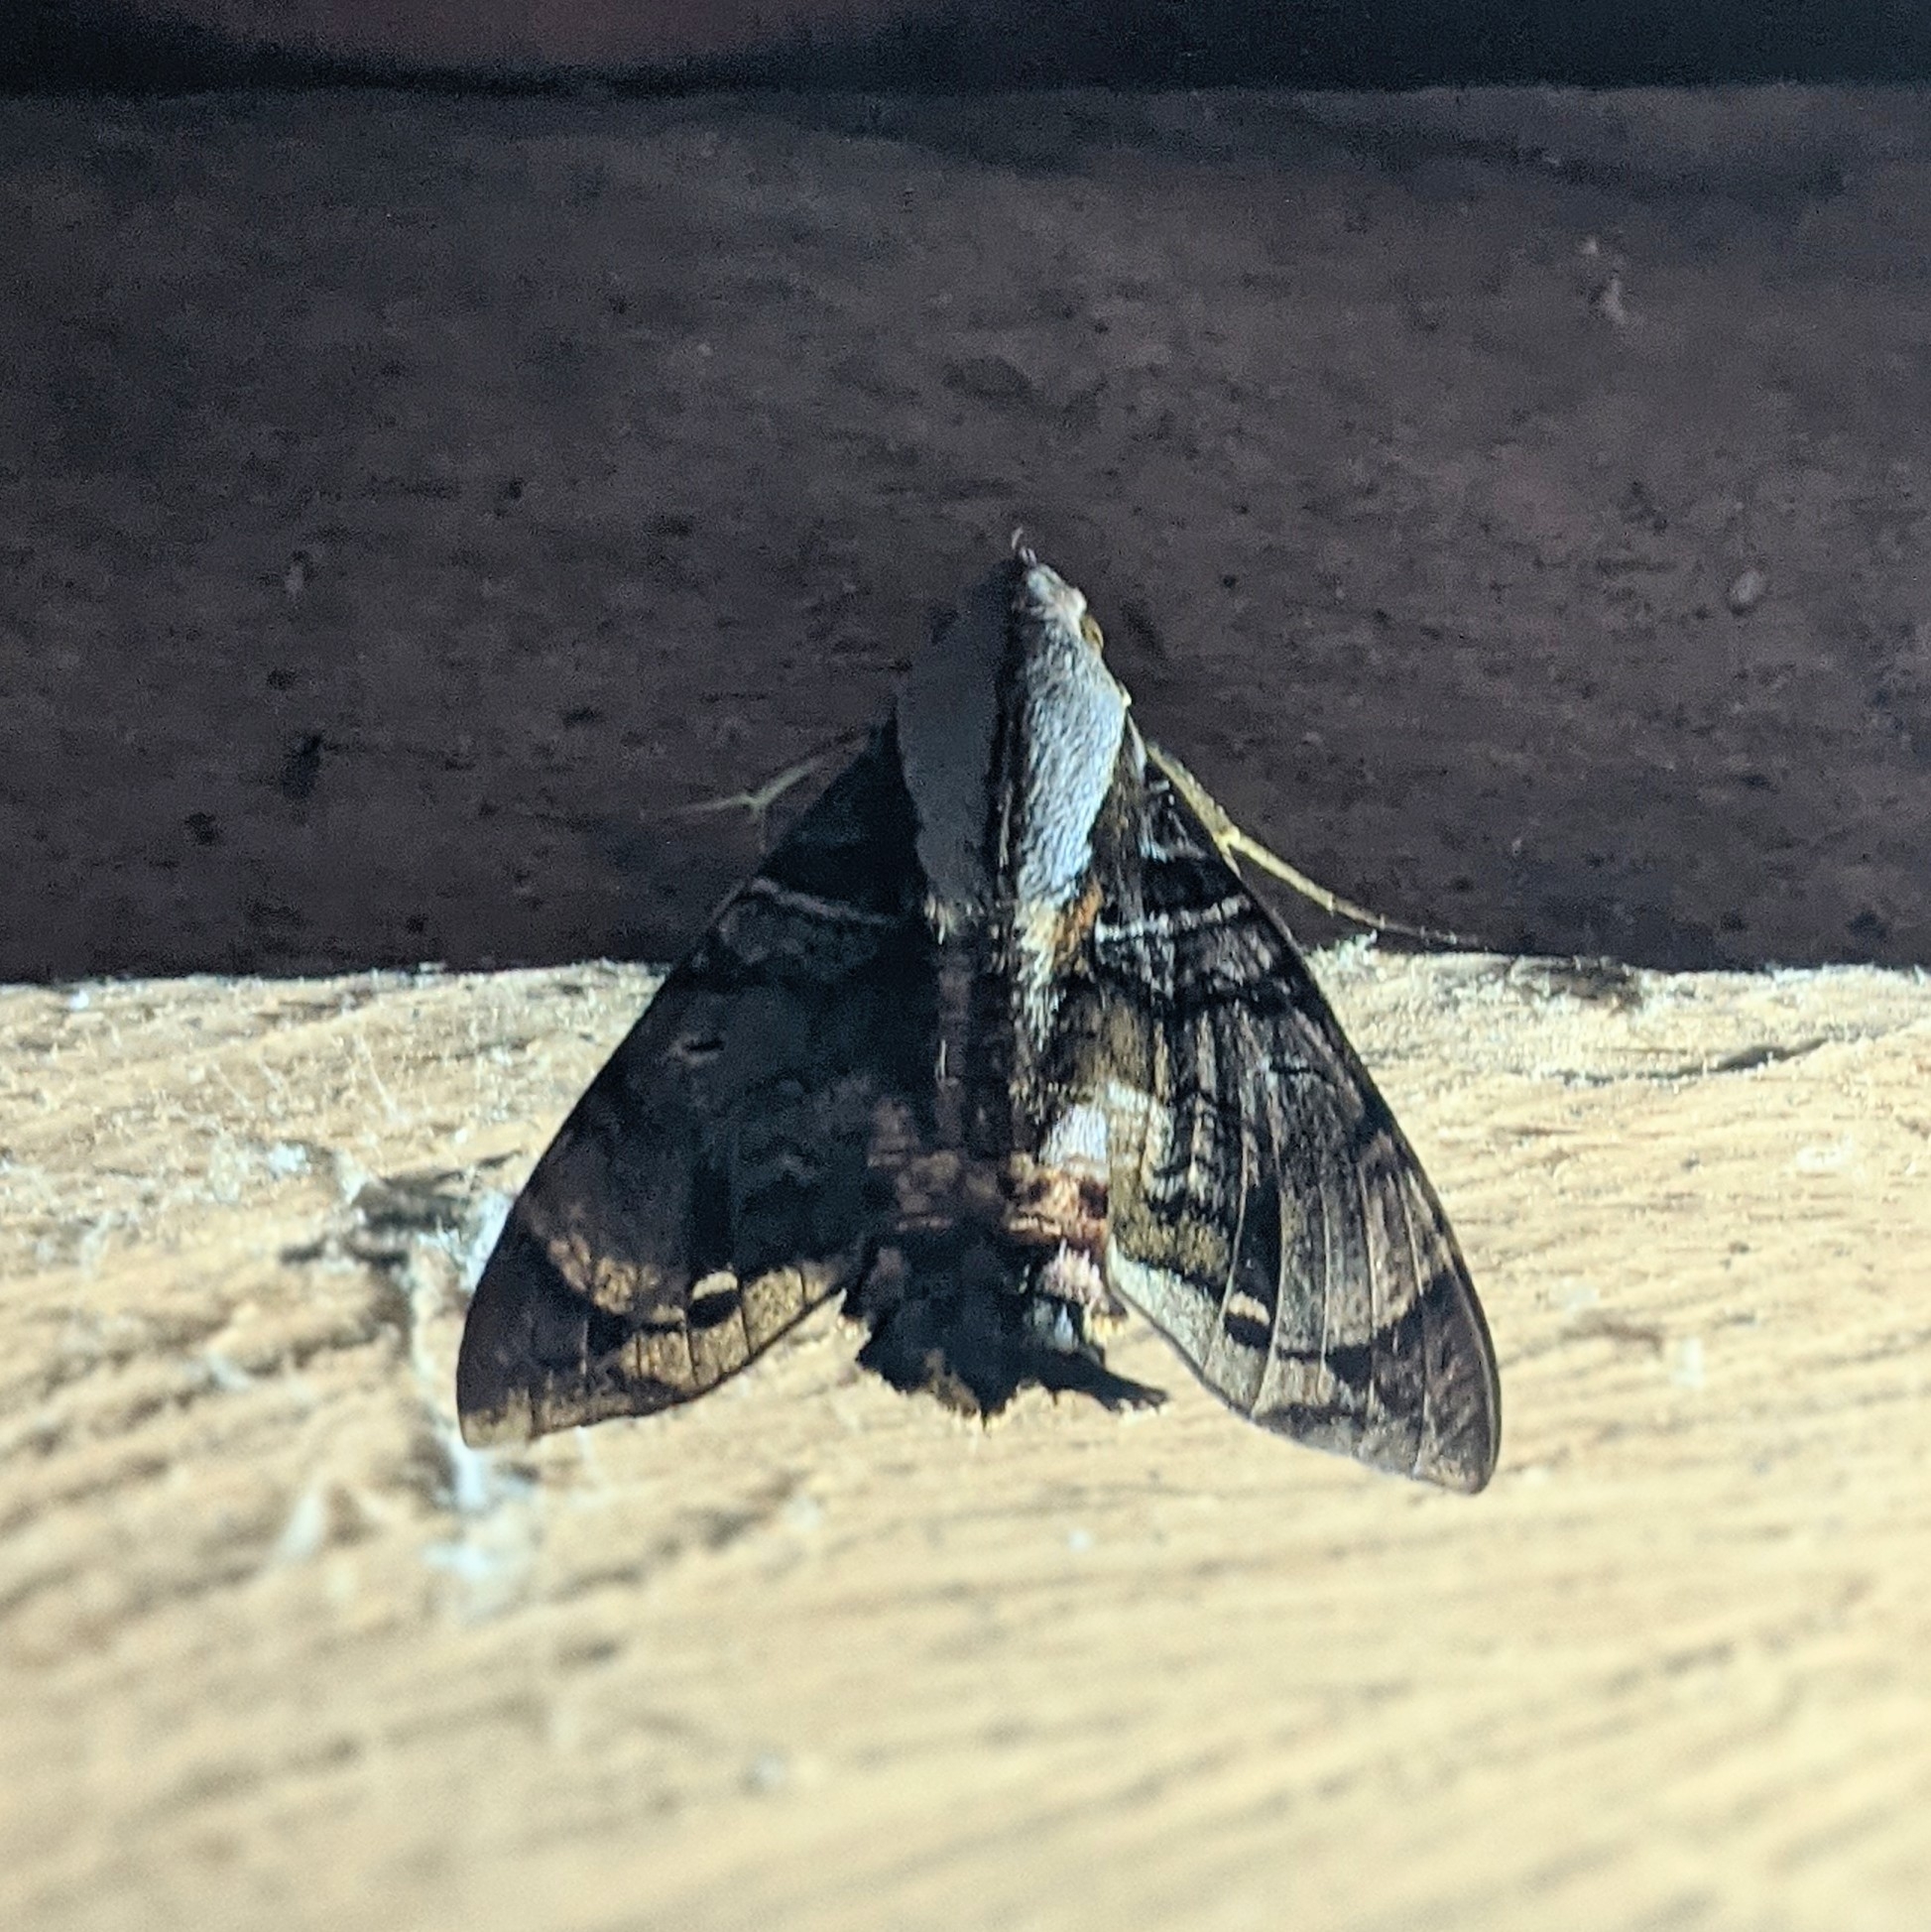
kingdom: Animalia
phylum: Arthropoda
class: Insecta
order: Lepidoptera
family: Sphingidae
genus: Eupyrrhoglossum
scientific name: Eupyrrhoglossum sagra
